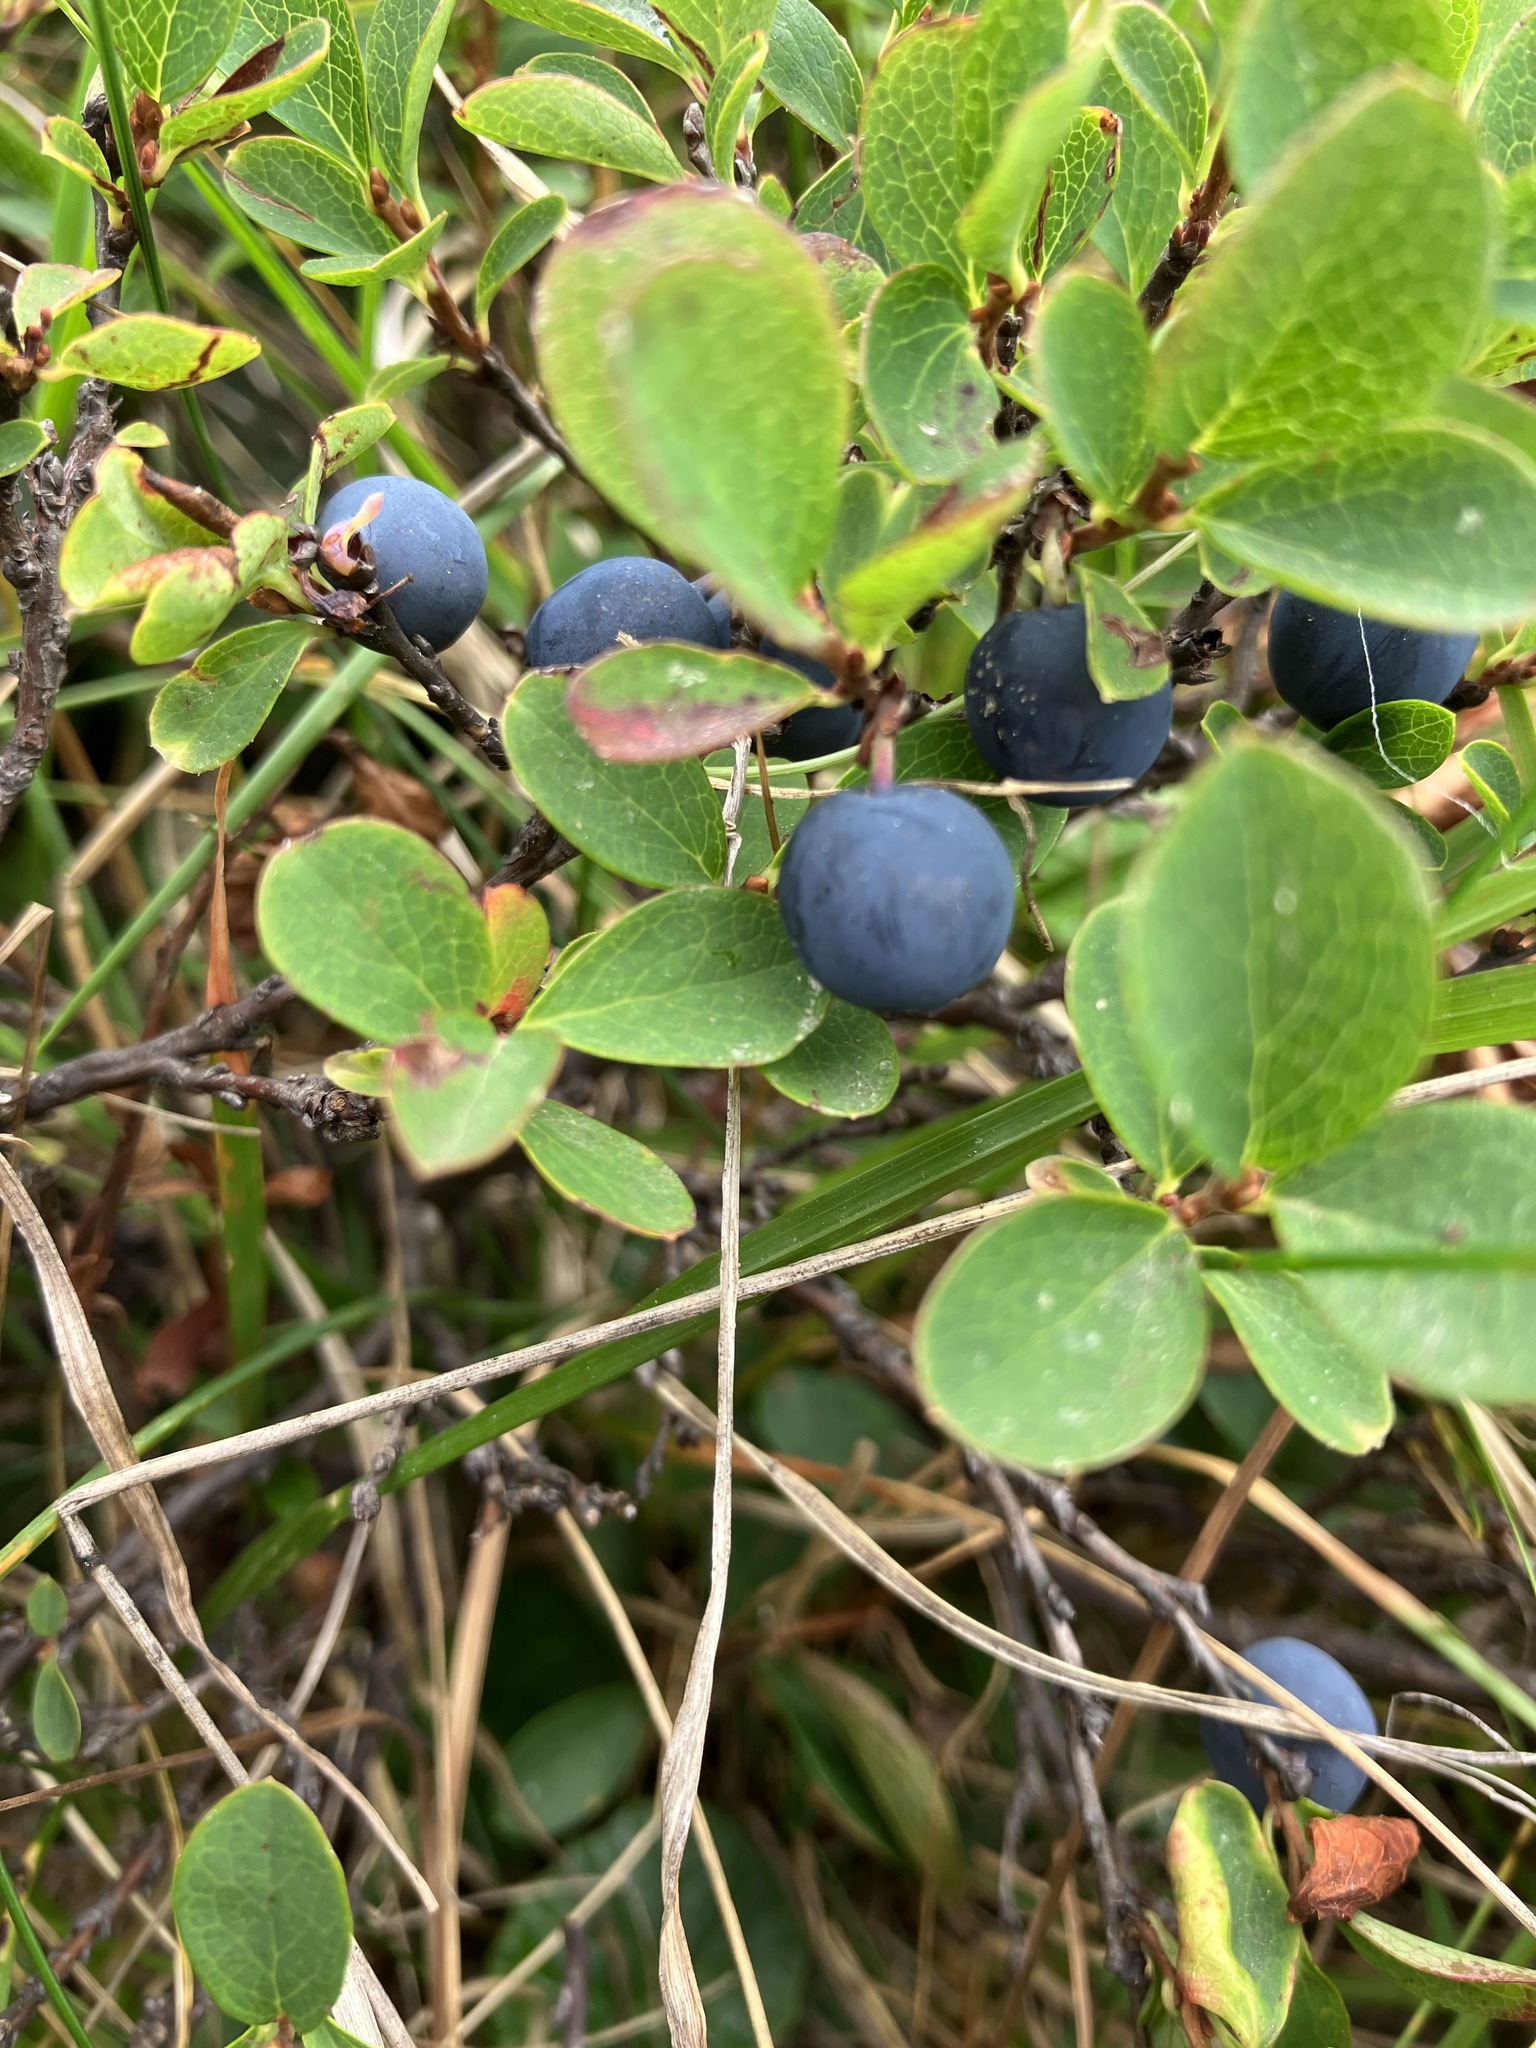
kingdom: Plantae
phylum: Tracheophyta
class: Magnoliopsida
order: Ericales
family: Ericaceae
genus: Vaccinium
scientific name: Vaccinium uliginosum
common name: Bog bilberry
